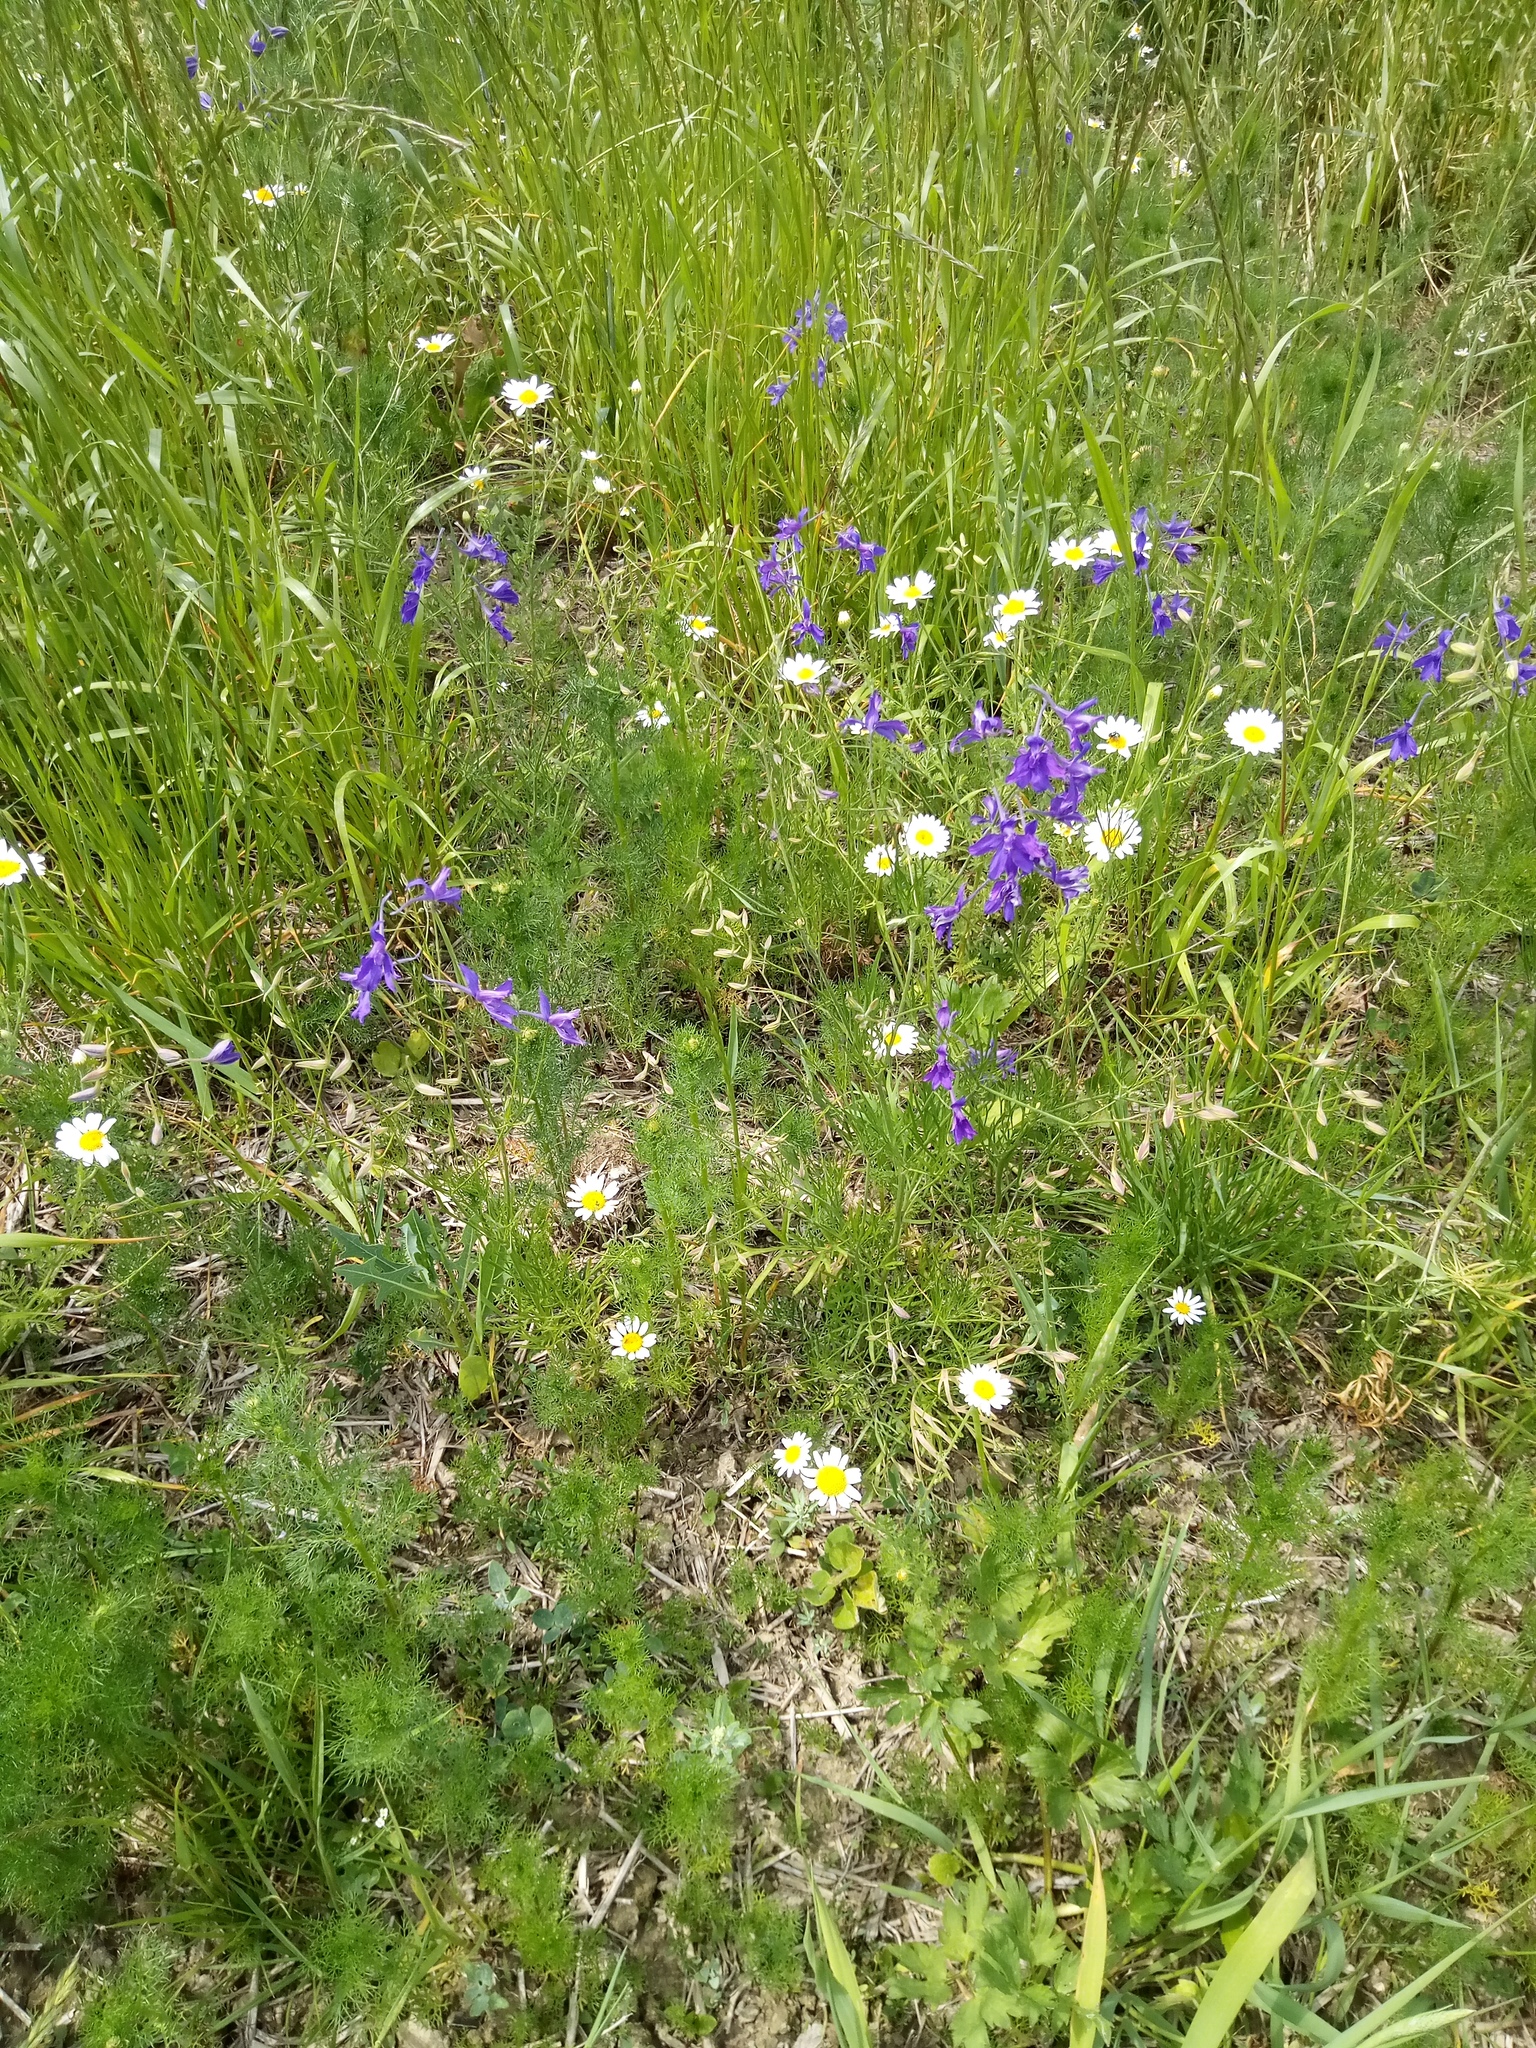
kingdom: Plantae
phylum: Tracheophyta
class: Magnoliopsida
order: Ranunculales
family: Ranunculaceae
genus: Delphinium
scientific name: Delphinium consolida
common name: Branching larkspur
